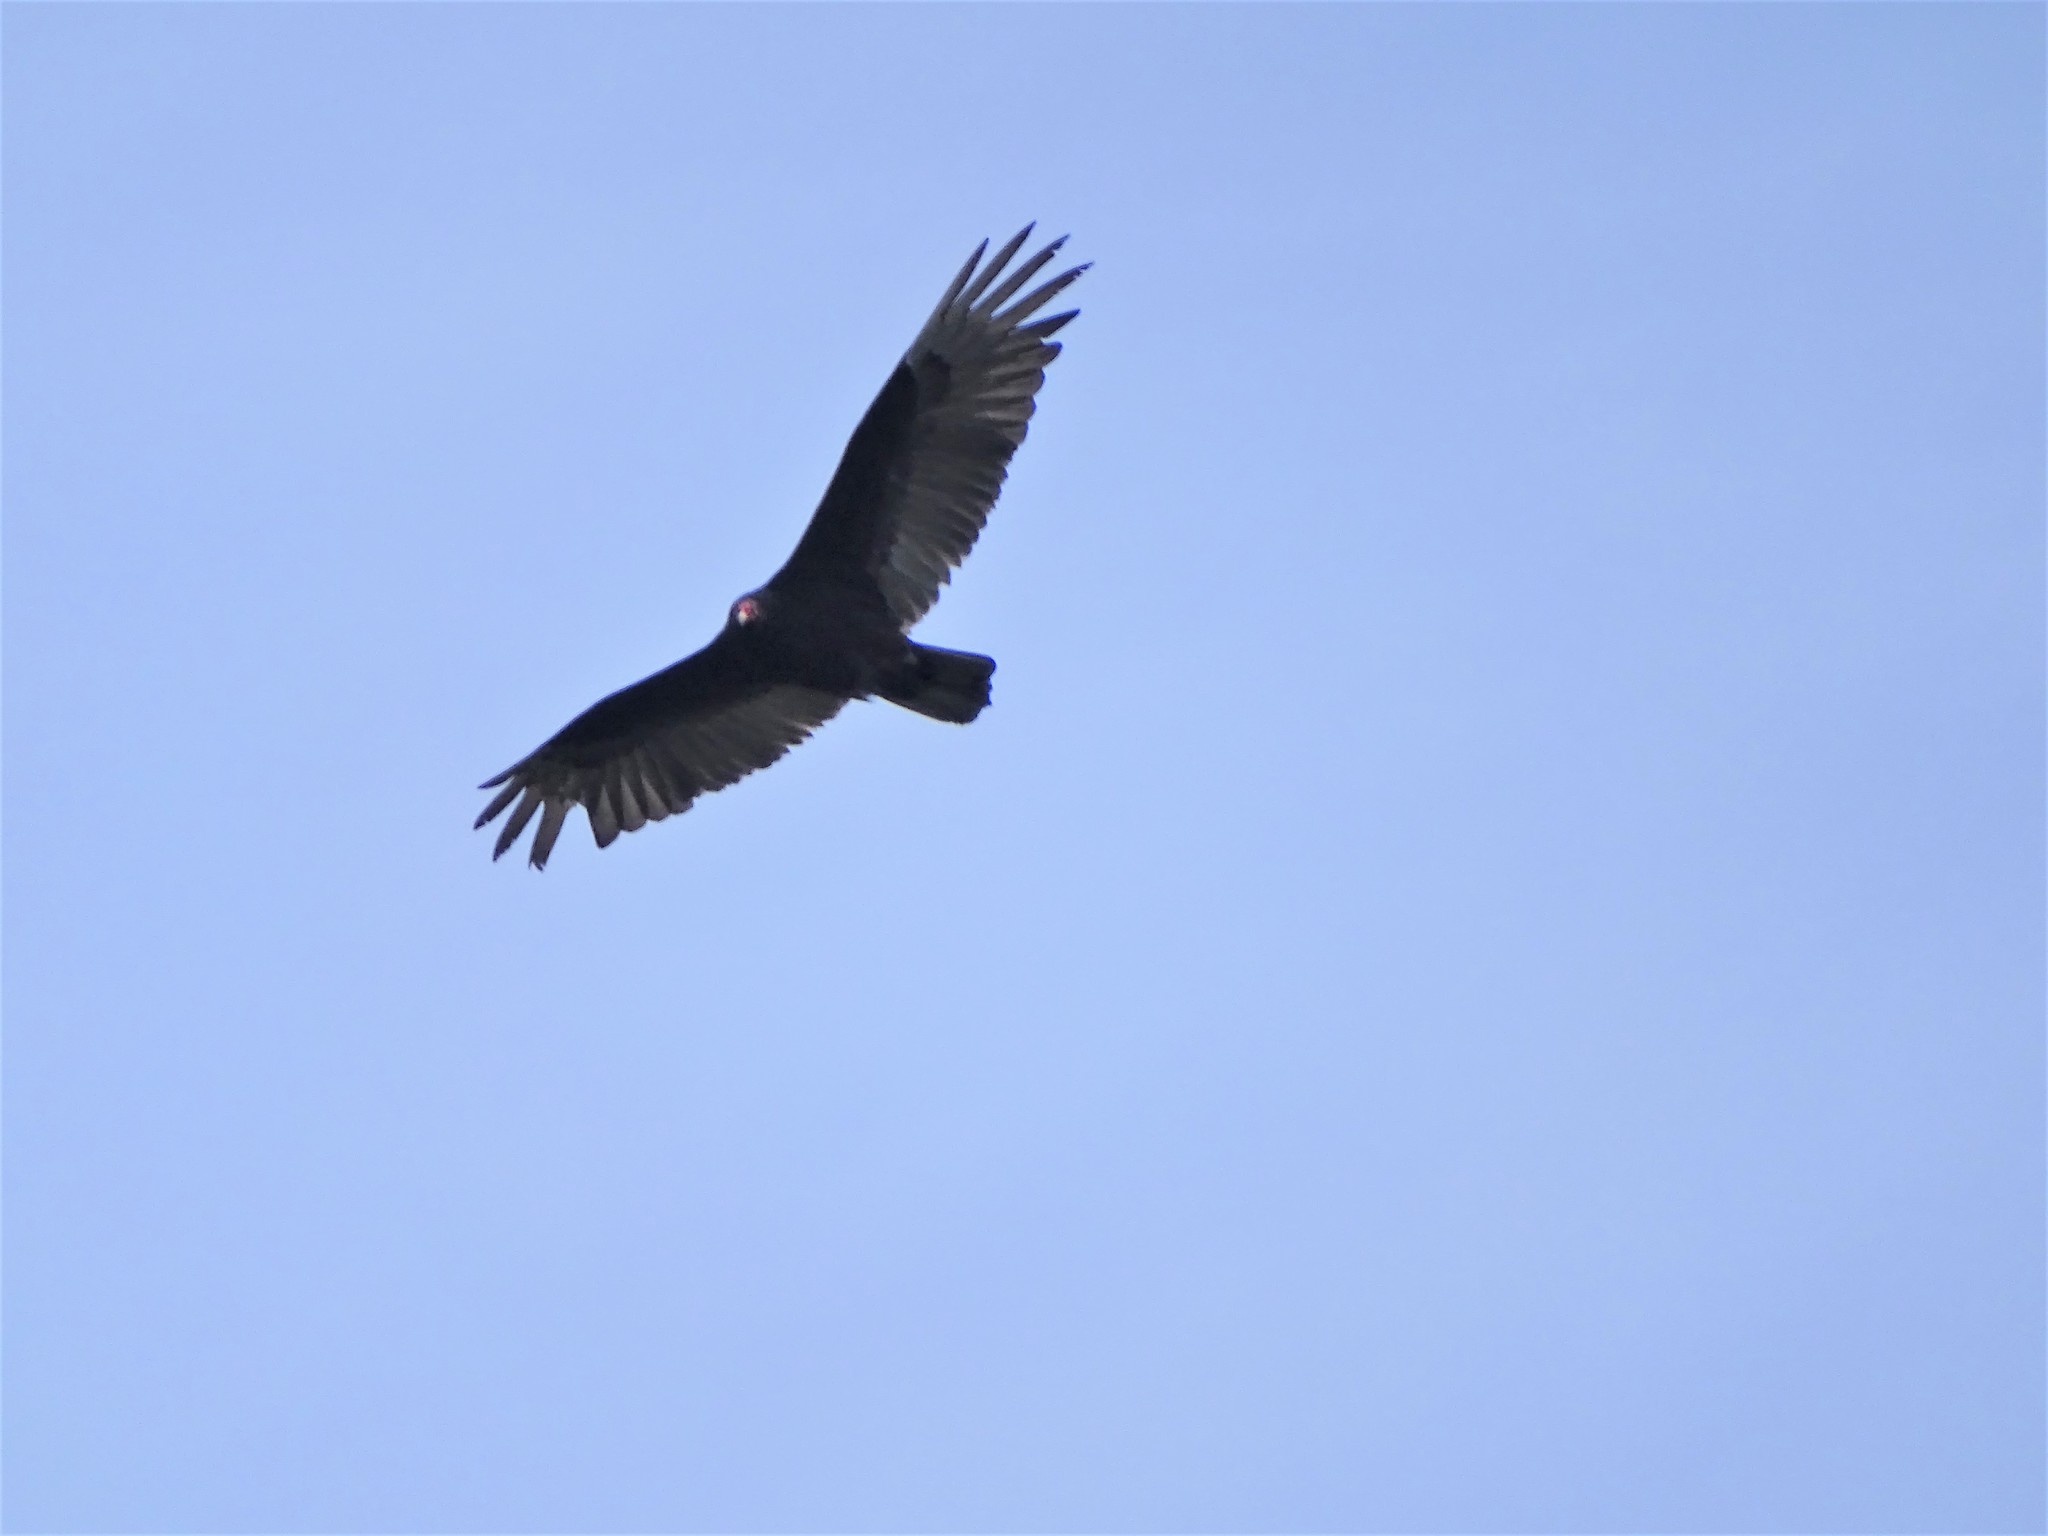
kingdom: Animalia
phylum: Chordata
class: Aves
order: Accipitriformes
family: Cathartidae
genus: Cathartes
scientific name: Cathartes aura
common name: Turkey vulture
